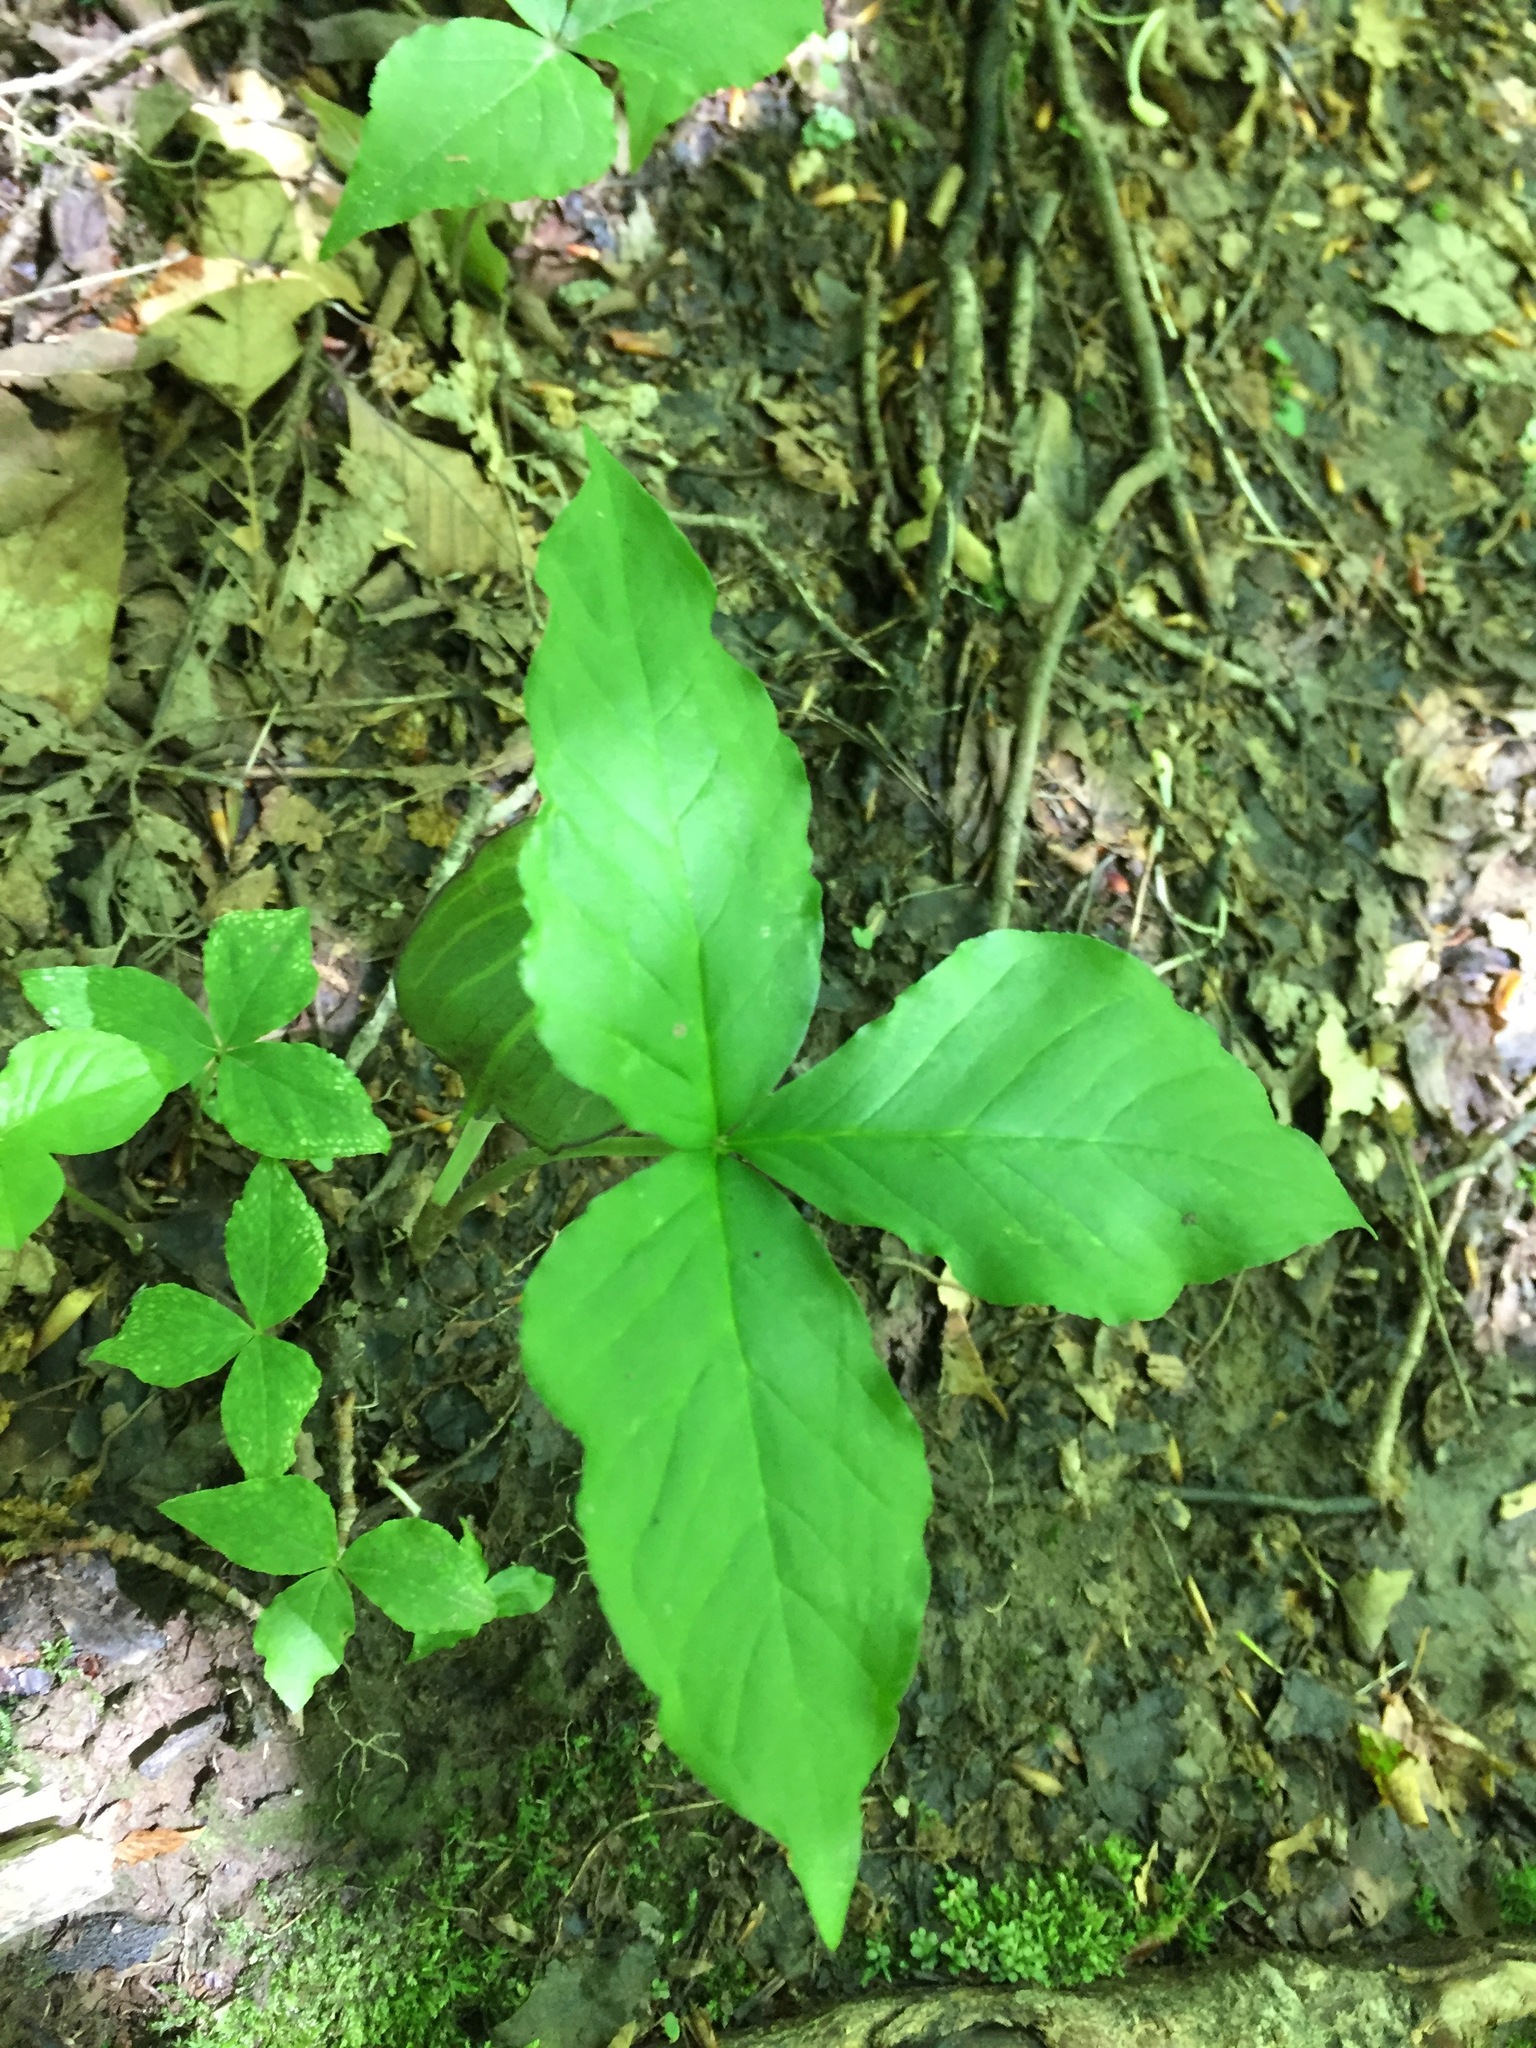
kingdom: Plantae
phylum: Tracheophyta
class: Liliopsida
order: Alismatales
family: Araceae
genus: Arisaema
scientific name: Arisaema triphyllum
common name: Jack-in-the-pulpit
